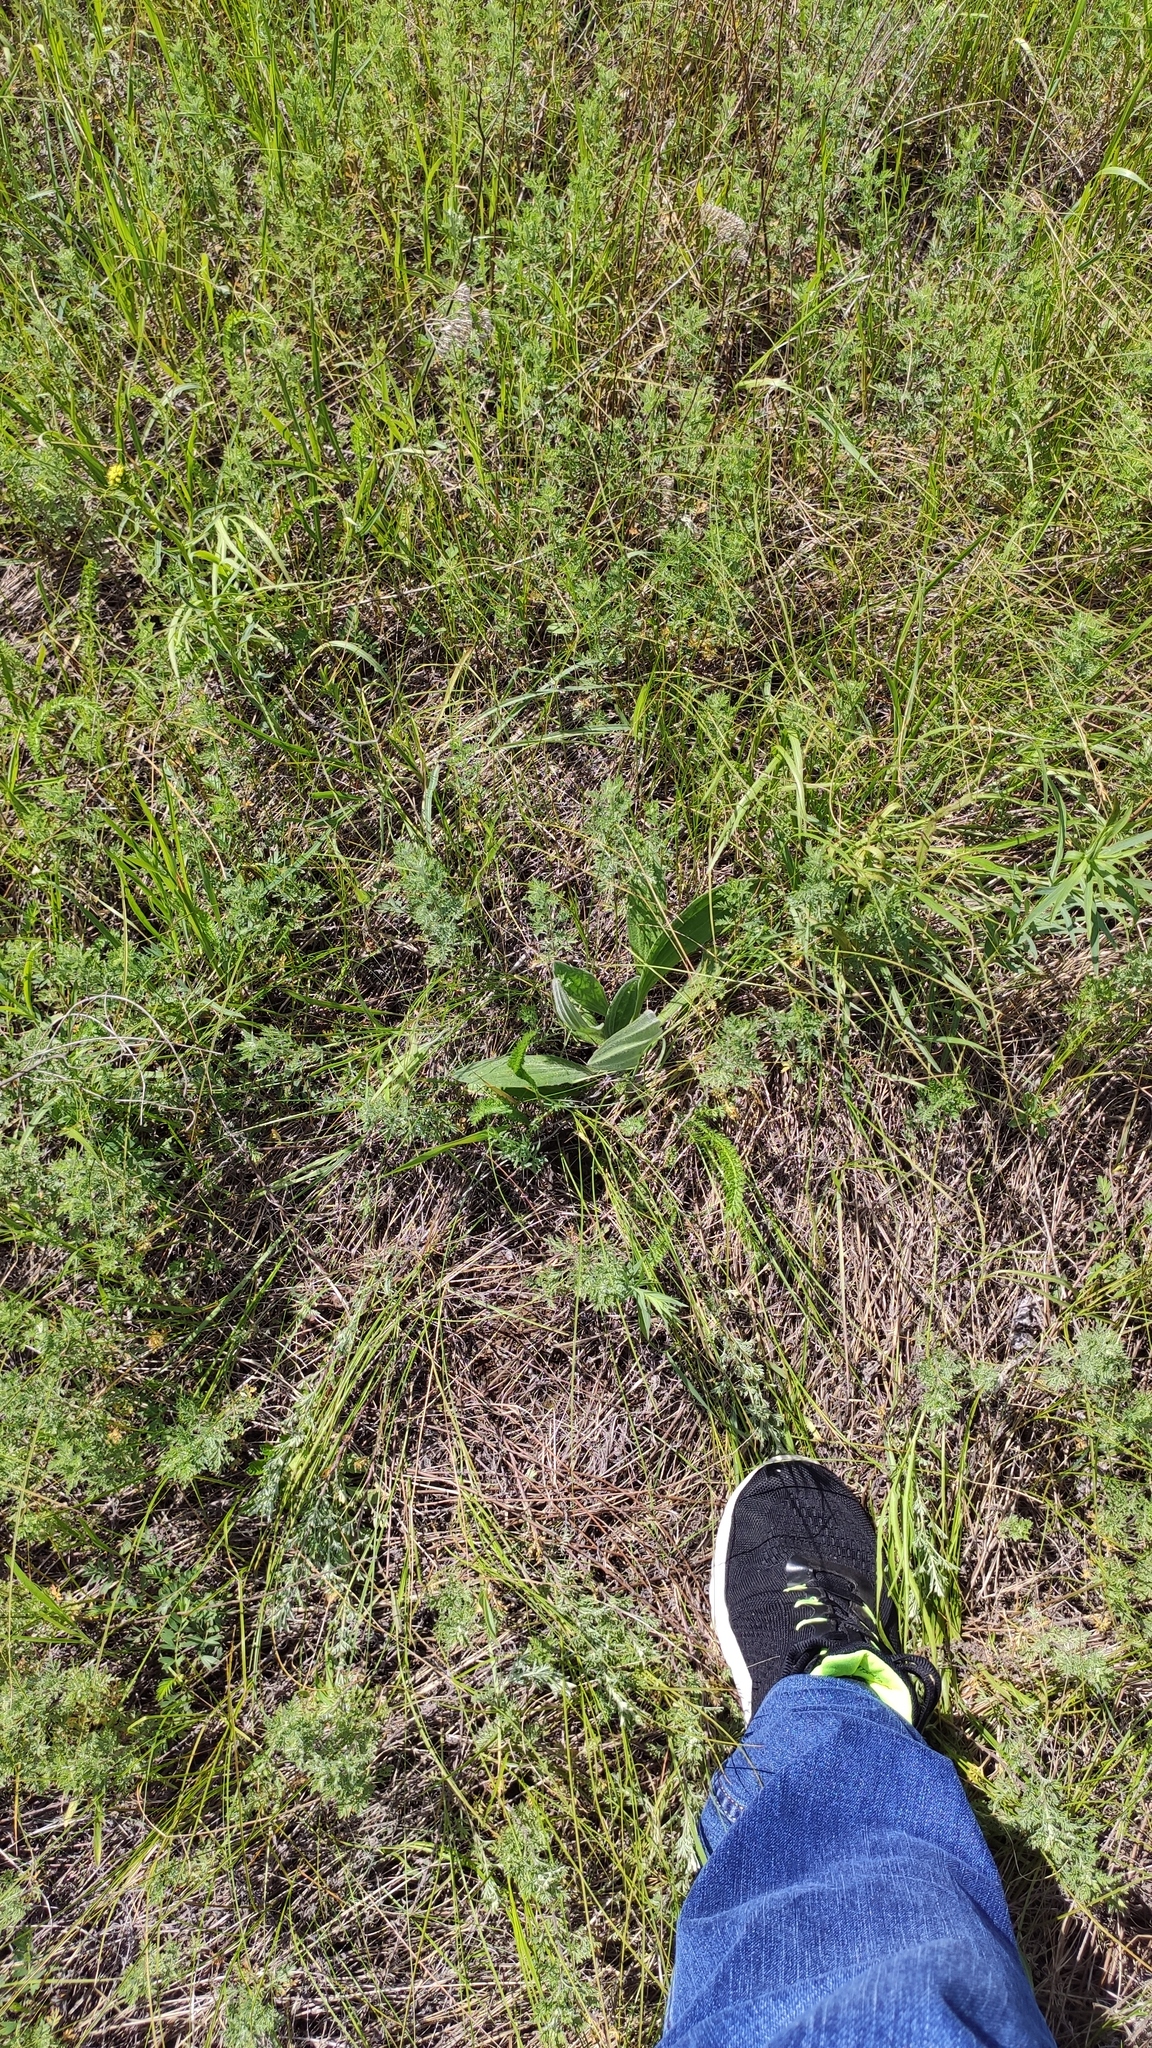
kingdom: Plantae
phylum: Tracheophyta
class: Magnoliopsida
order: Lamiales
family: Plantaginaceae
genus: Plantago
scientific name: Plantago urvillei
